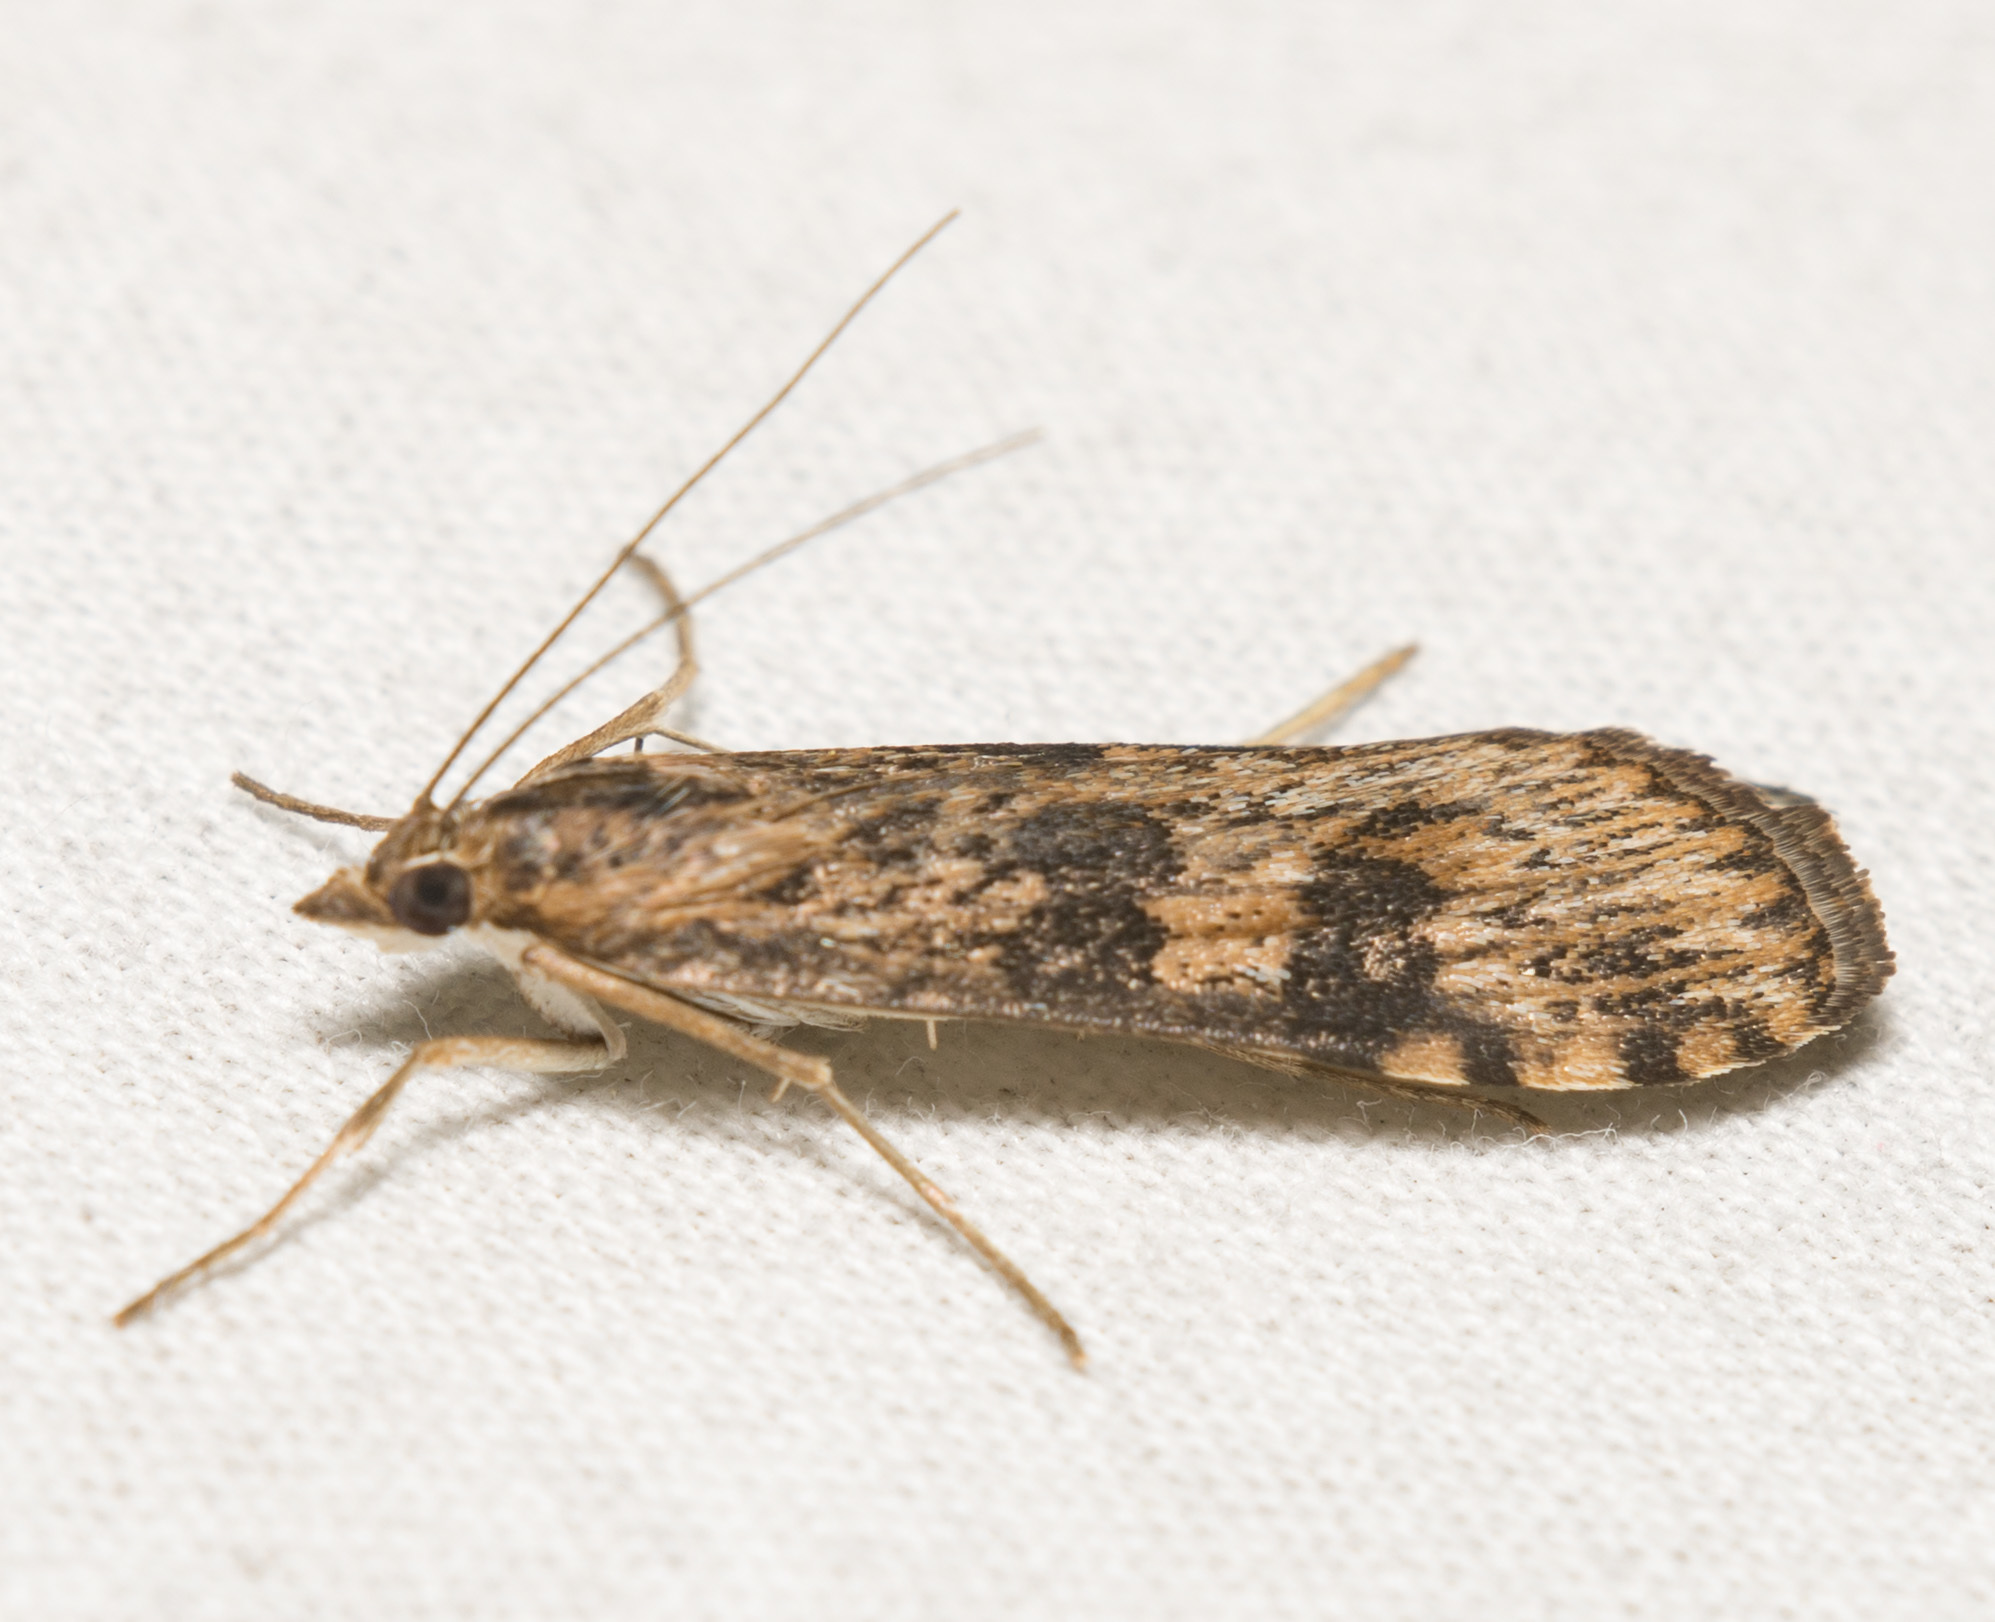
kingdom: Animalia
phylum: Arthropoda
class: Insecta
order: Lepidoptera
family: Crambidae
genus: Nomophila
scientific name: Nomophila nearctica
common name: American rush veneer
